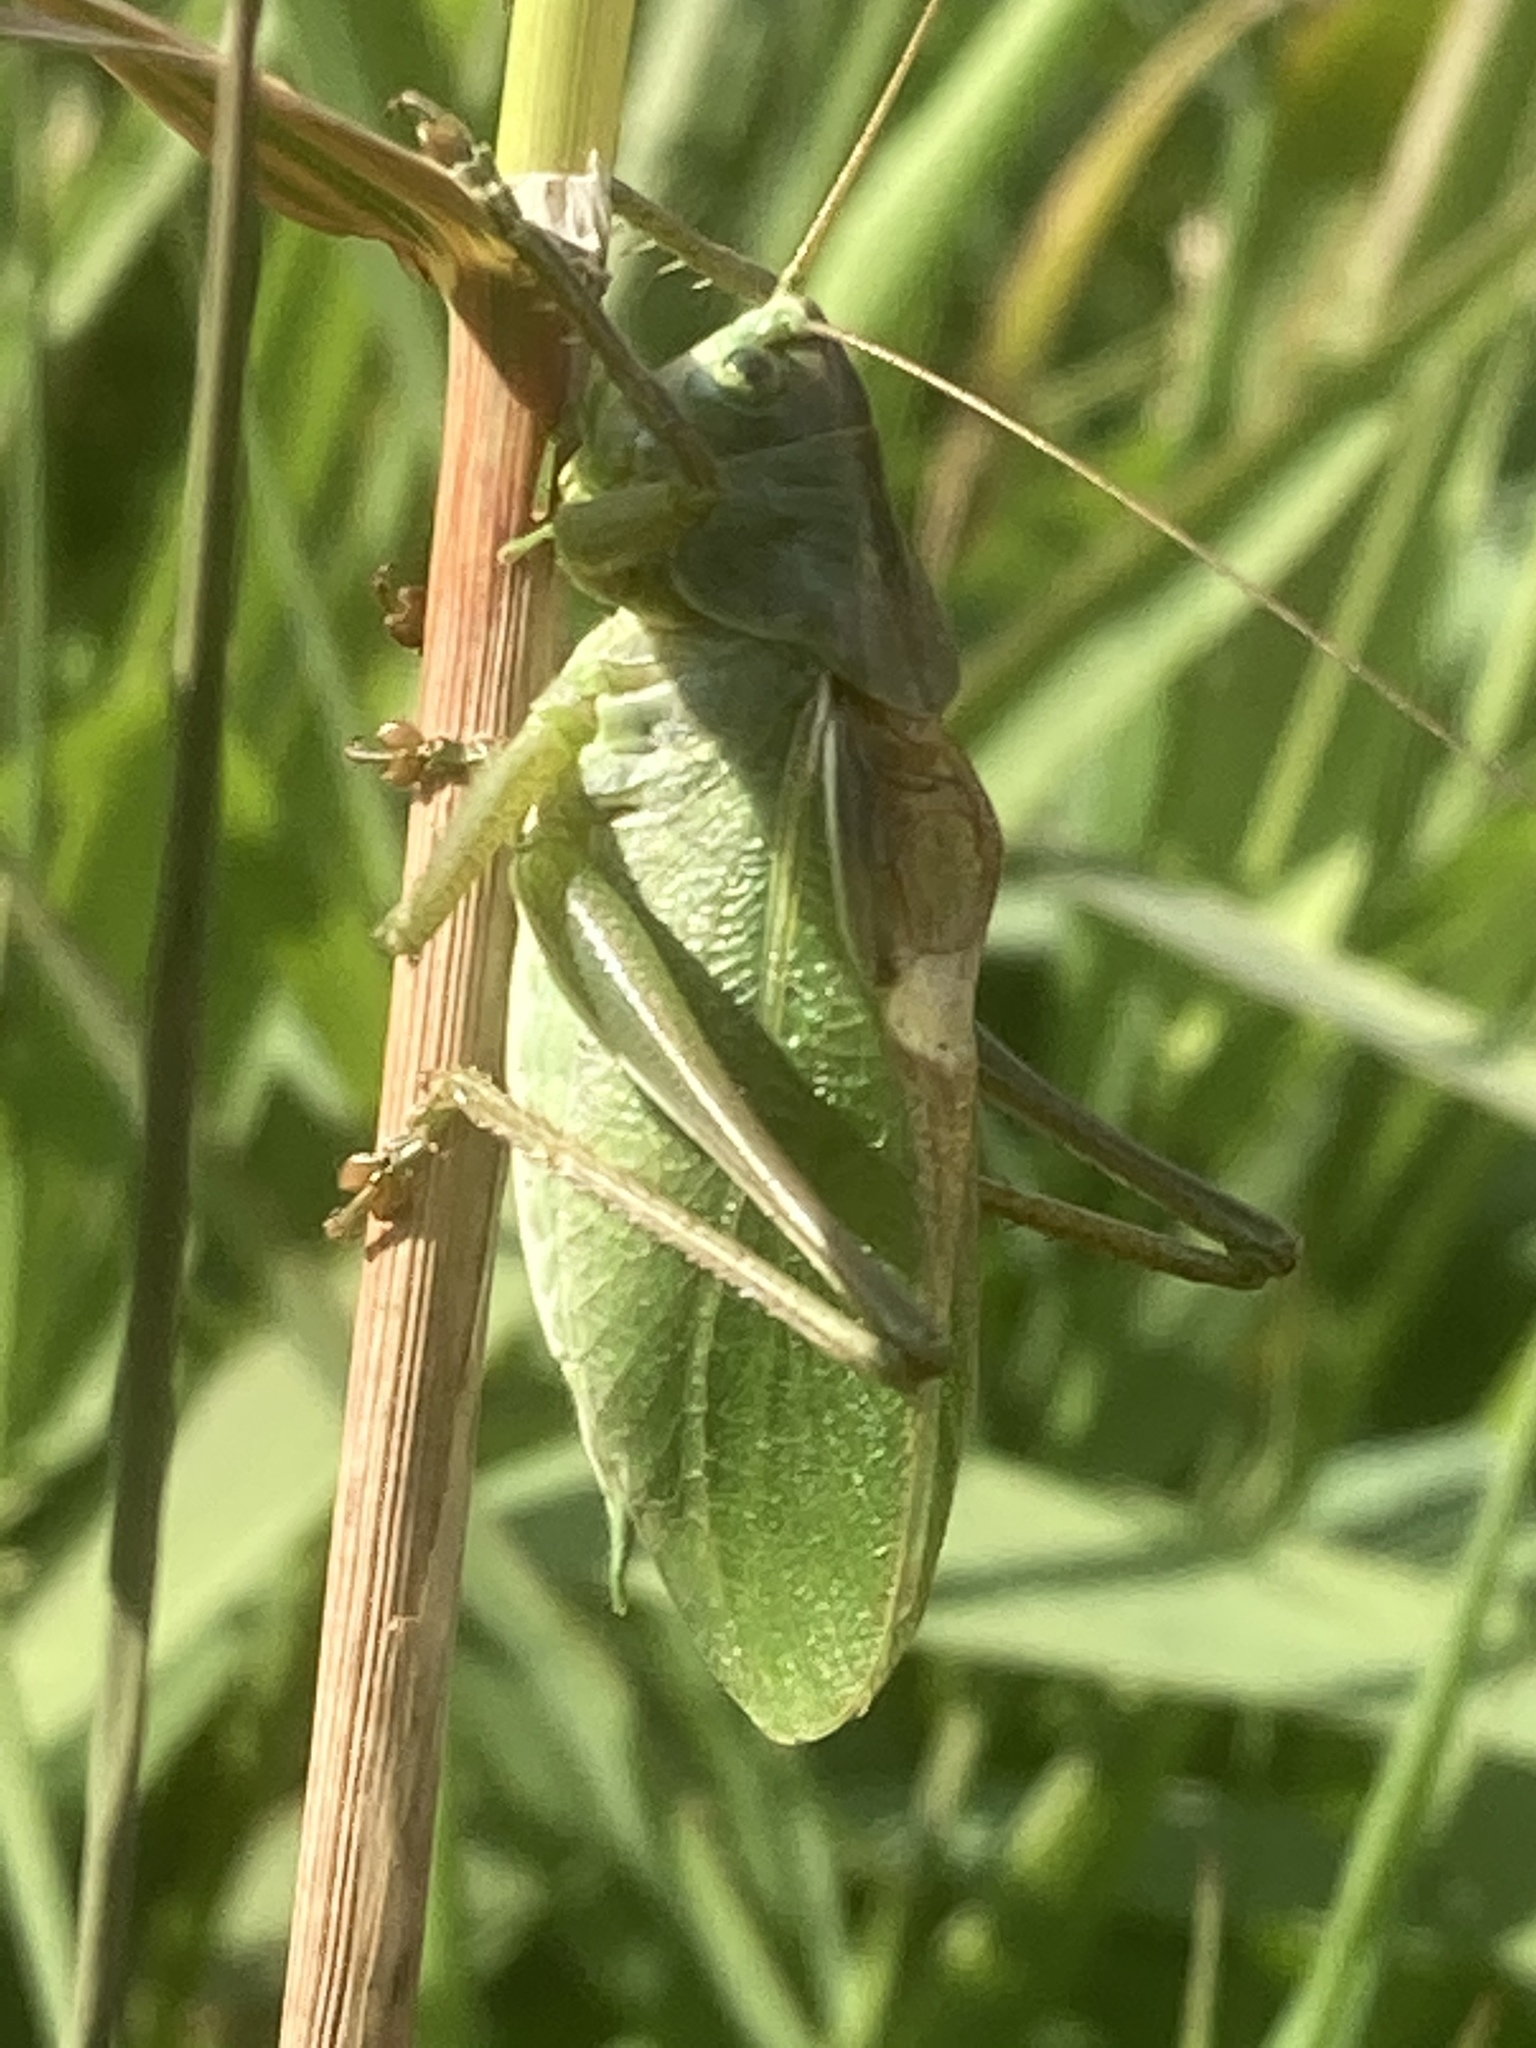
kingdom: Animalia
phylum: Arthropoda
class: Insecta
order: Orthoptera
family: Tettigoniidae
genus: Tettigonia
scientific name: Tettigonia cantans
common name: Upland green bush-cricket
